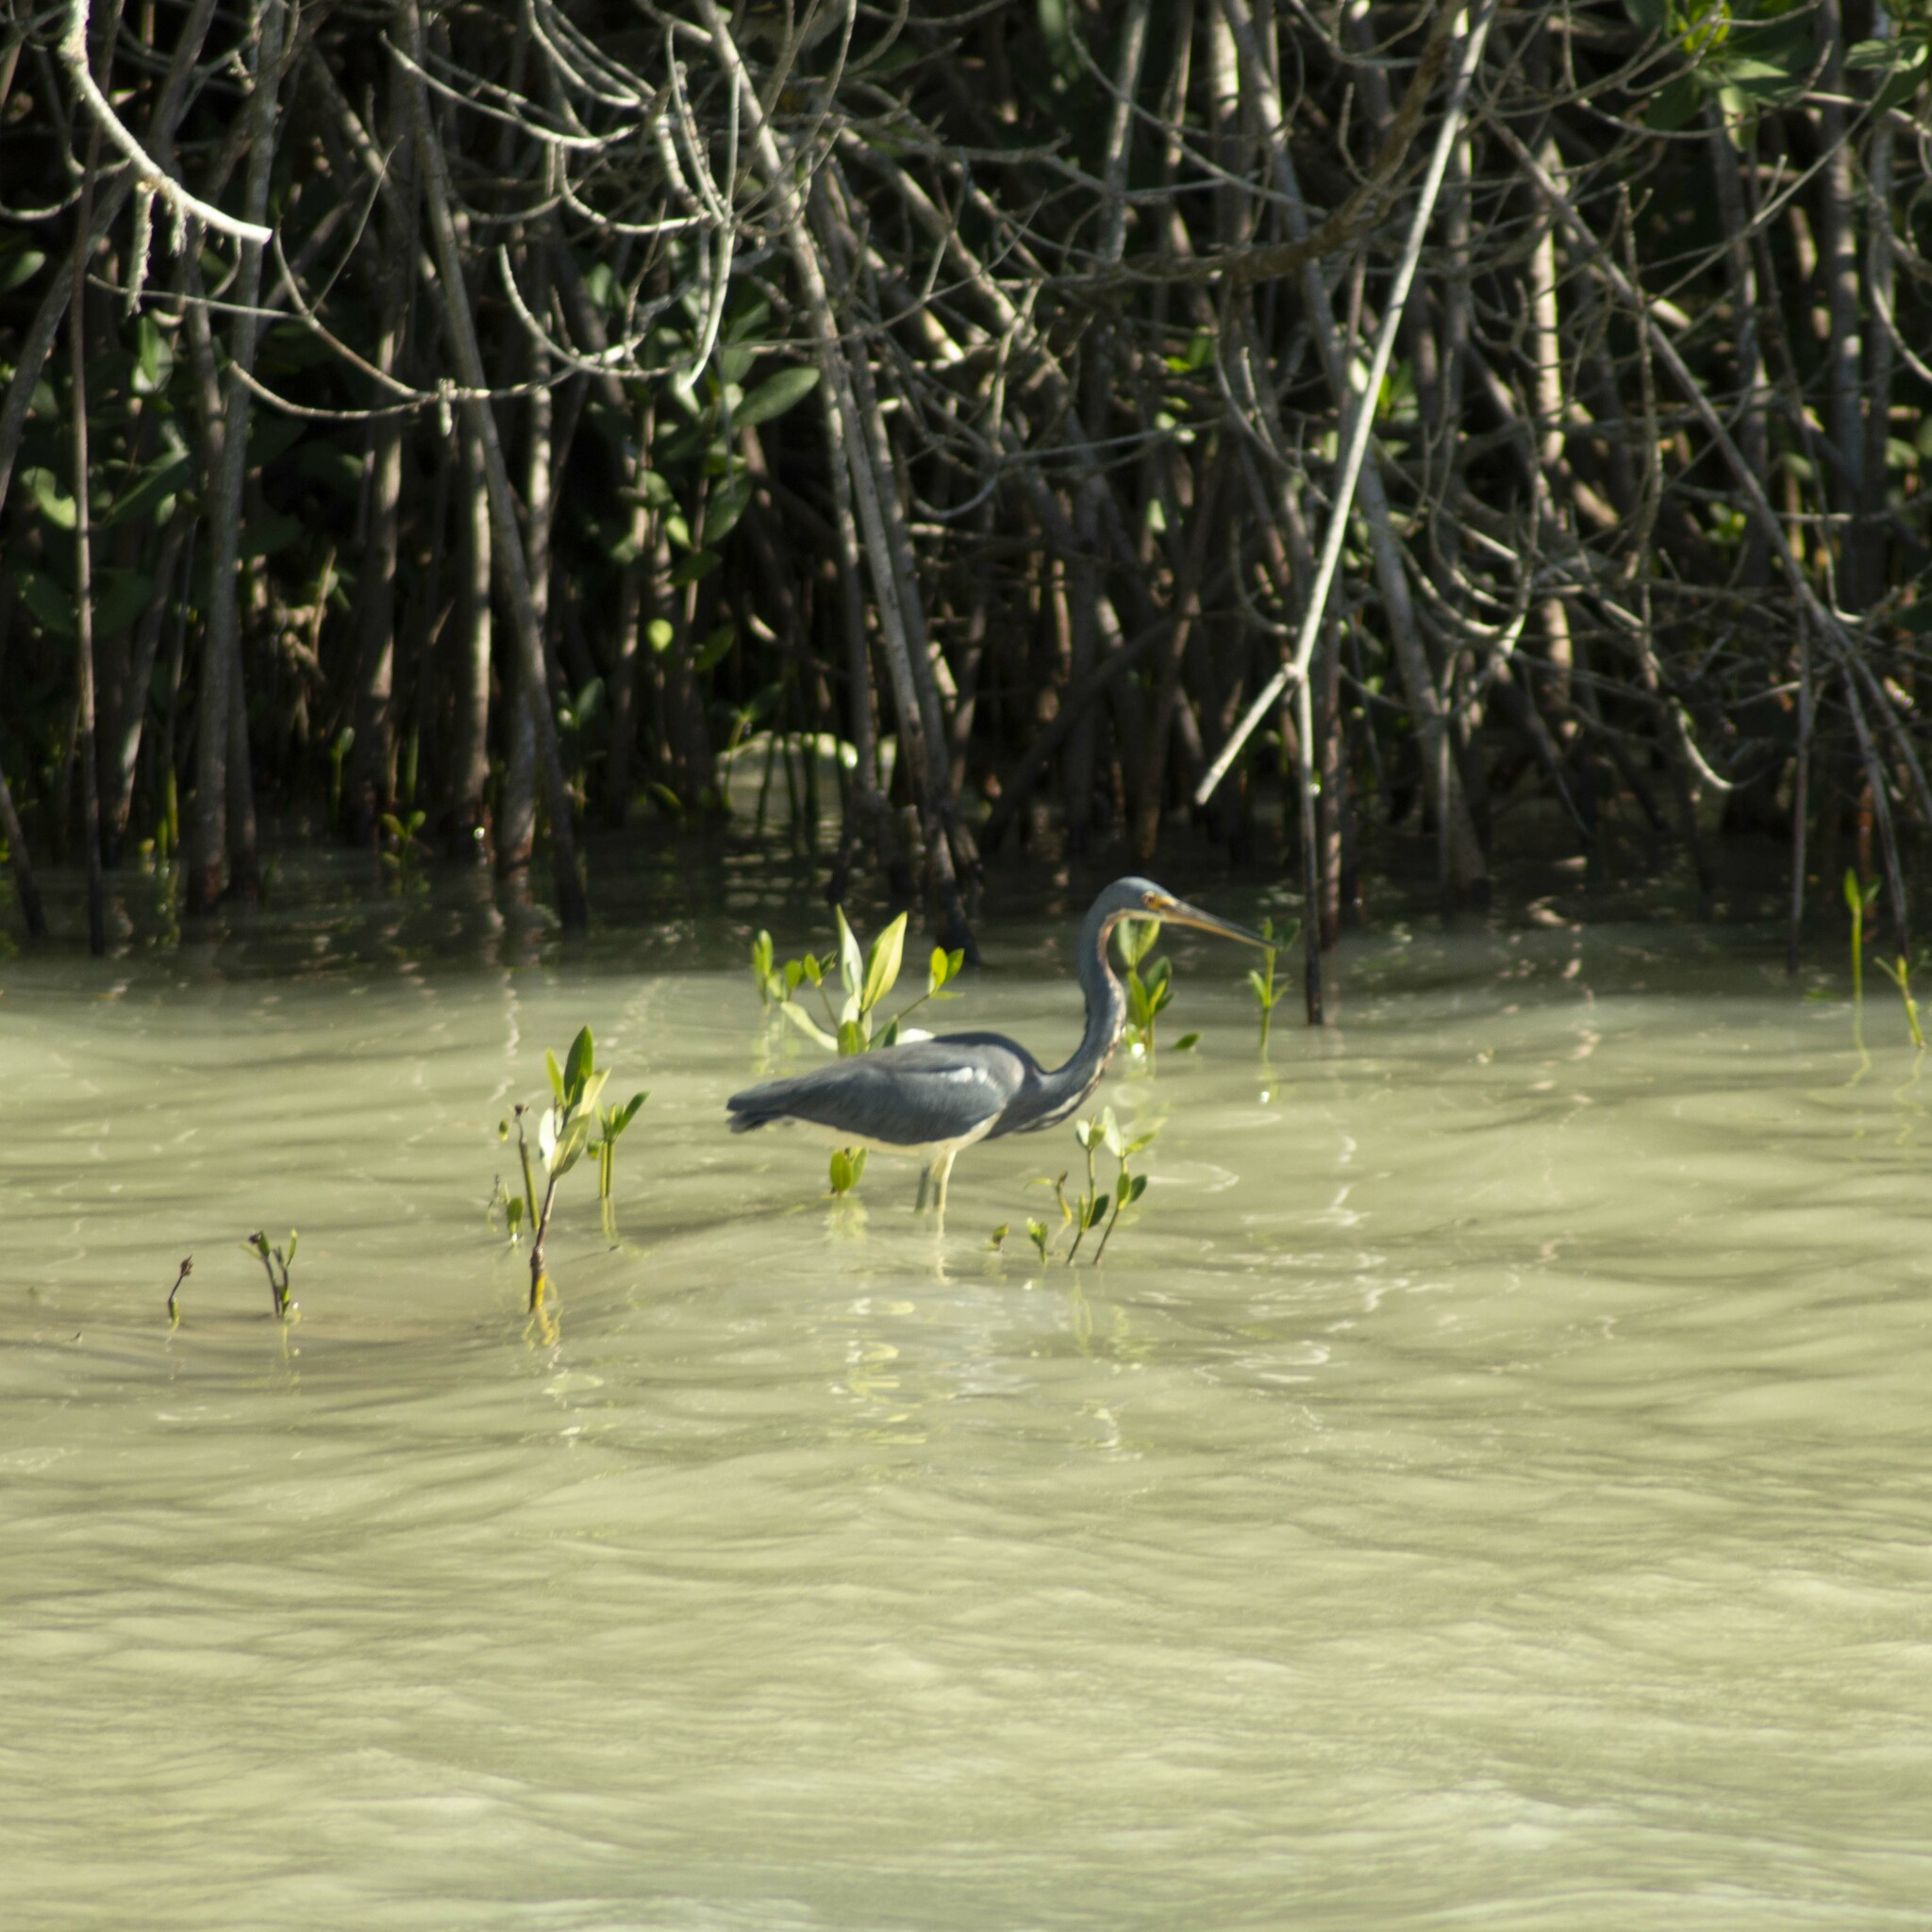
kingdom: Animalia
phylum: Chordata
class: Aves
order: Pelecaniformes
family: Ardeidae
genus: Egretta
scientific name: Egretta tricolor
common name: Tricolored heron
